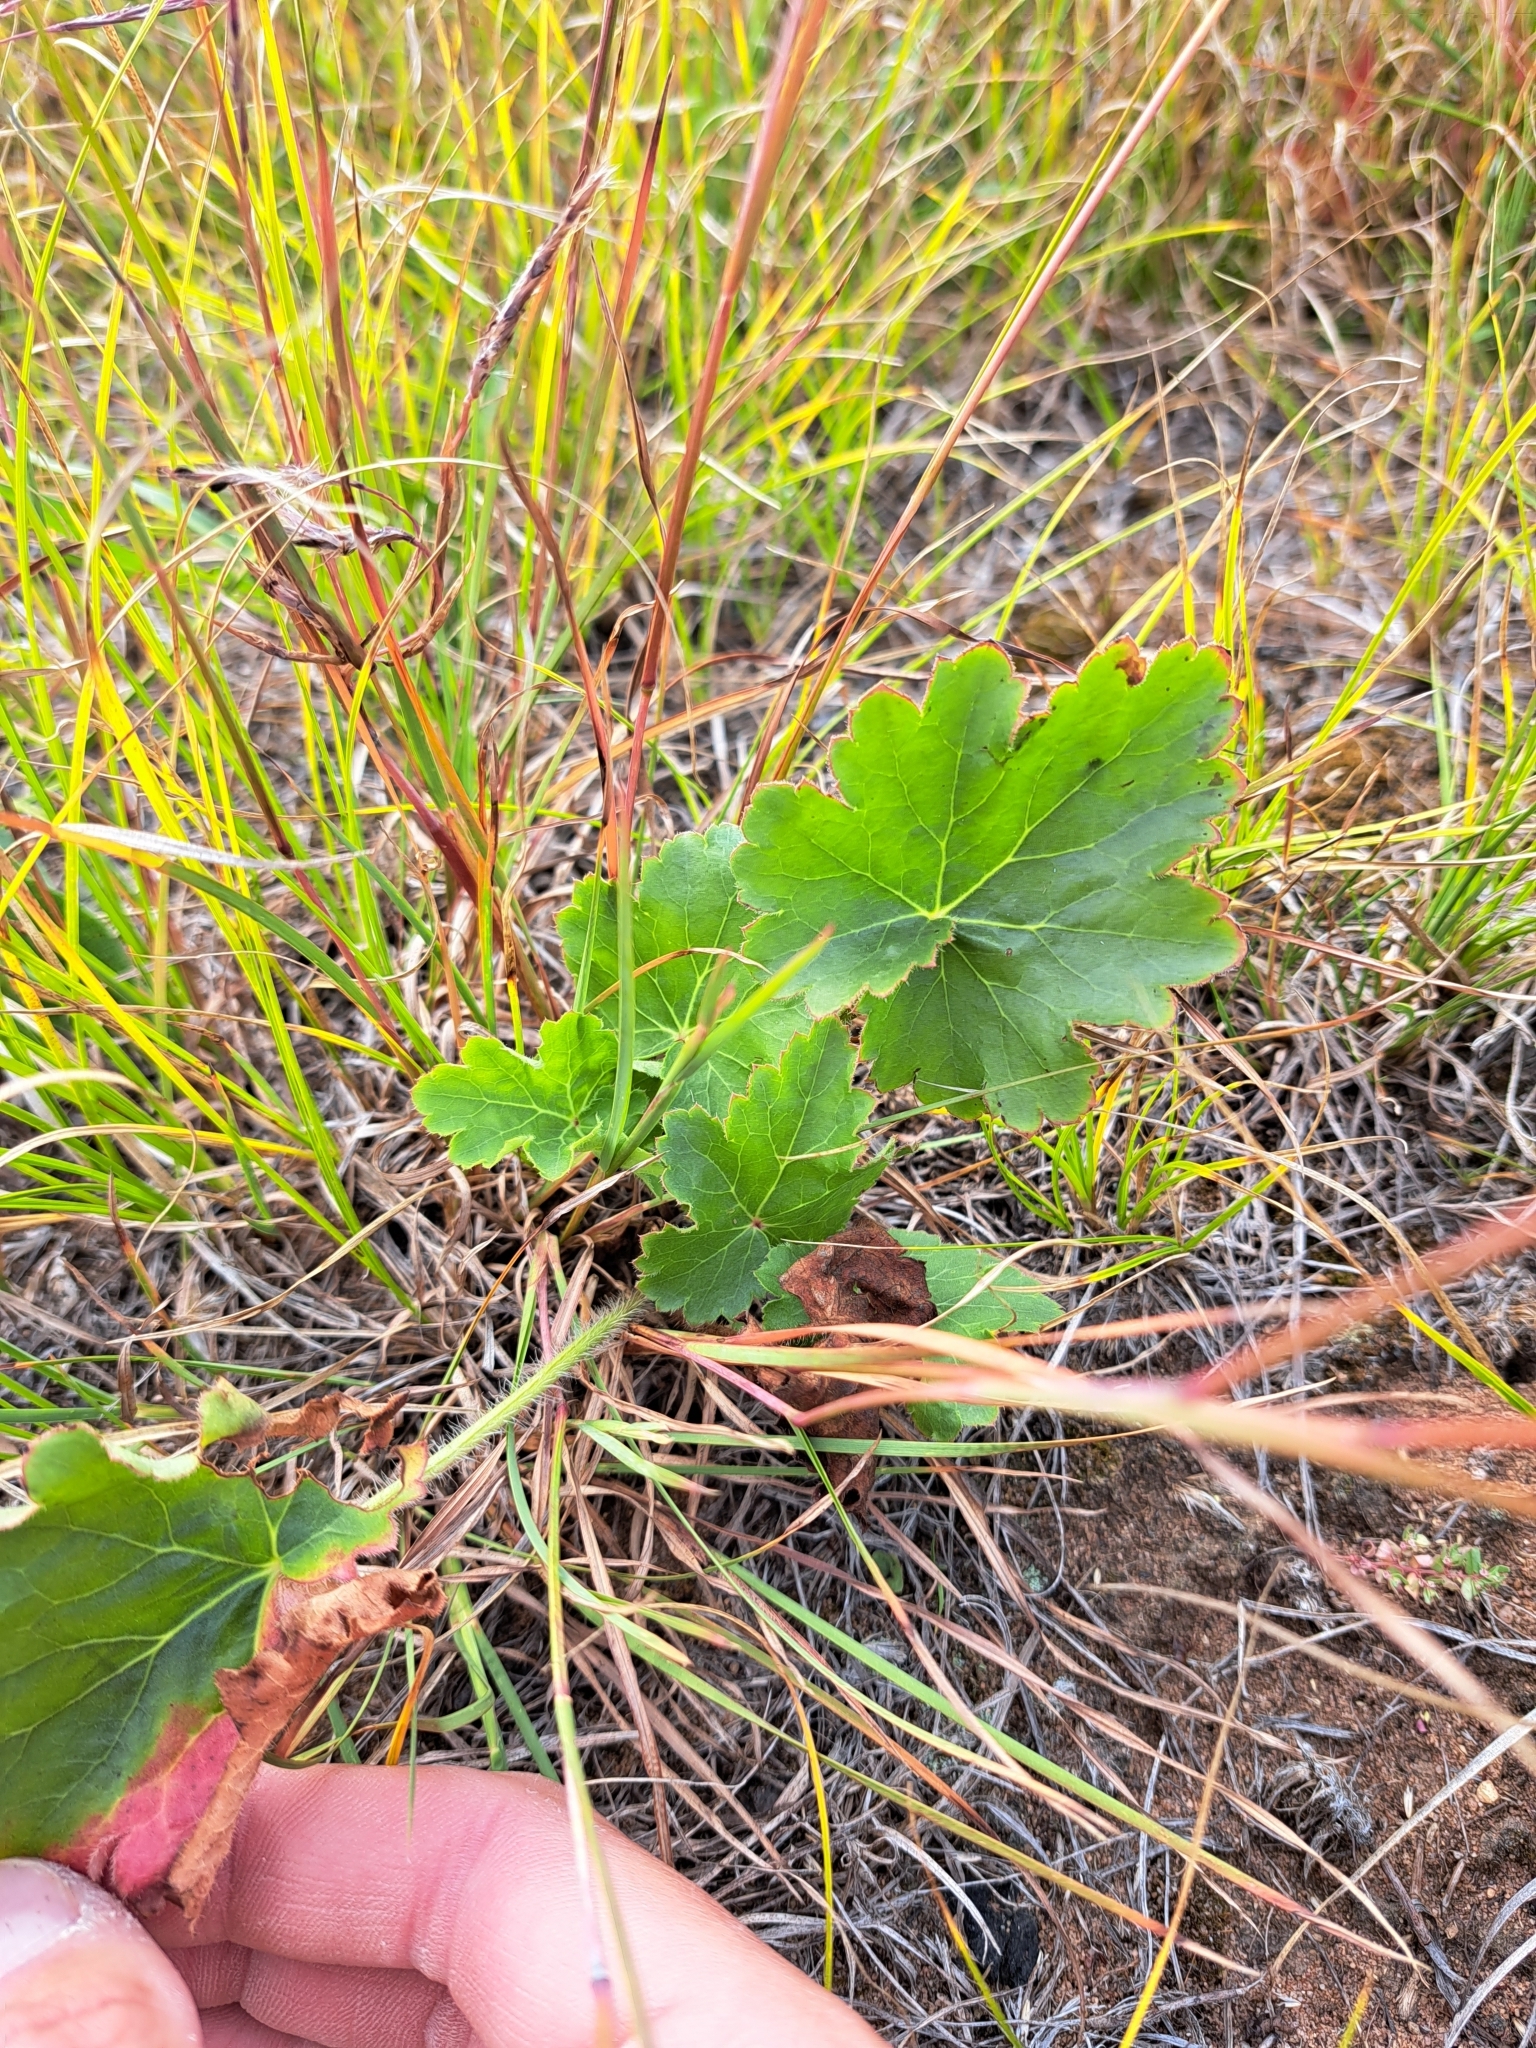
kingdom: Plantae
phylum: Tracheophyta
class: Magnoliopsida
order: Saxifragales
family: Saxifragaceae
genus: Heuchera
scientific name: Heuchera richardsonii
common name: Richardson's alumroot
